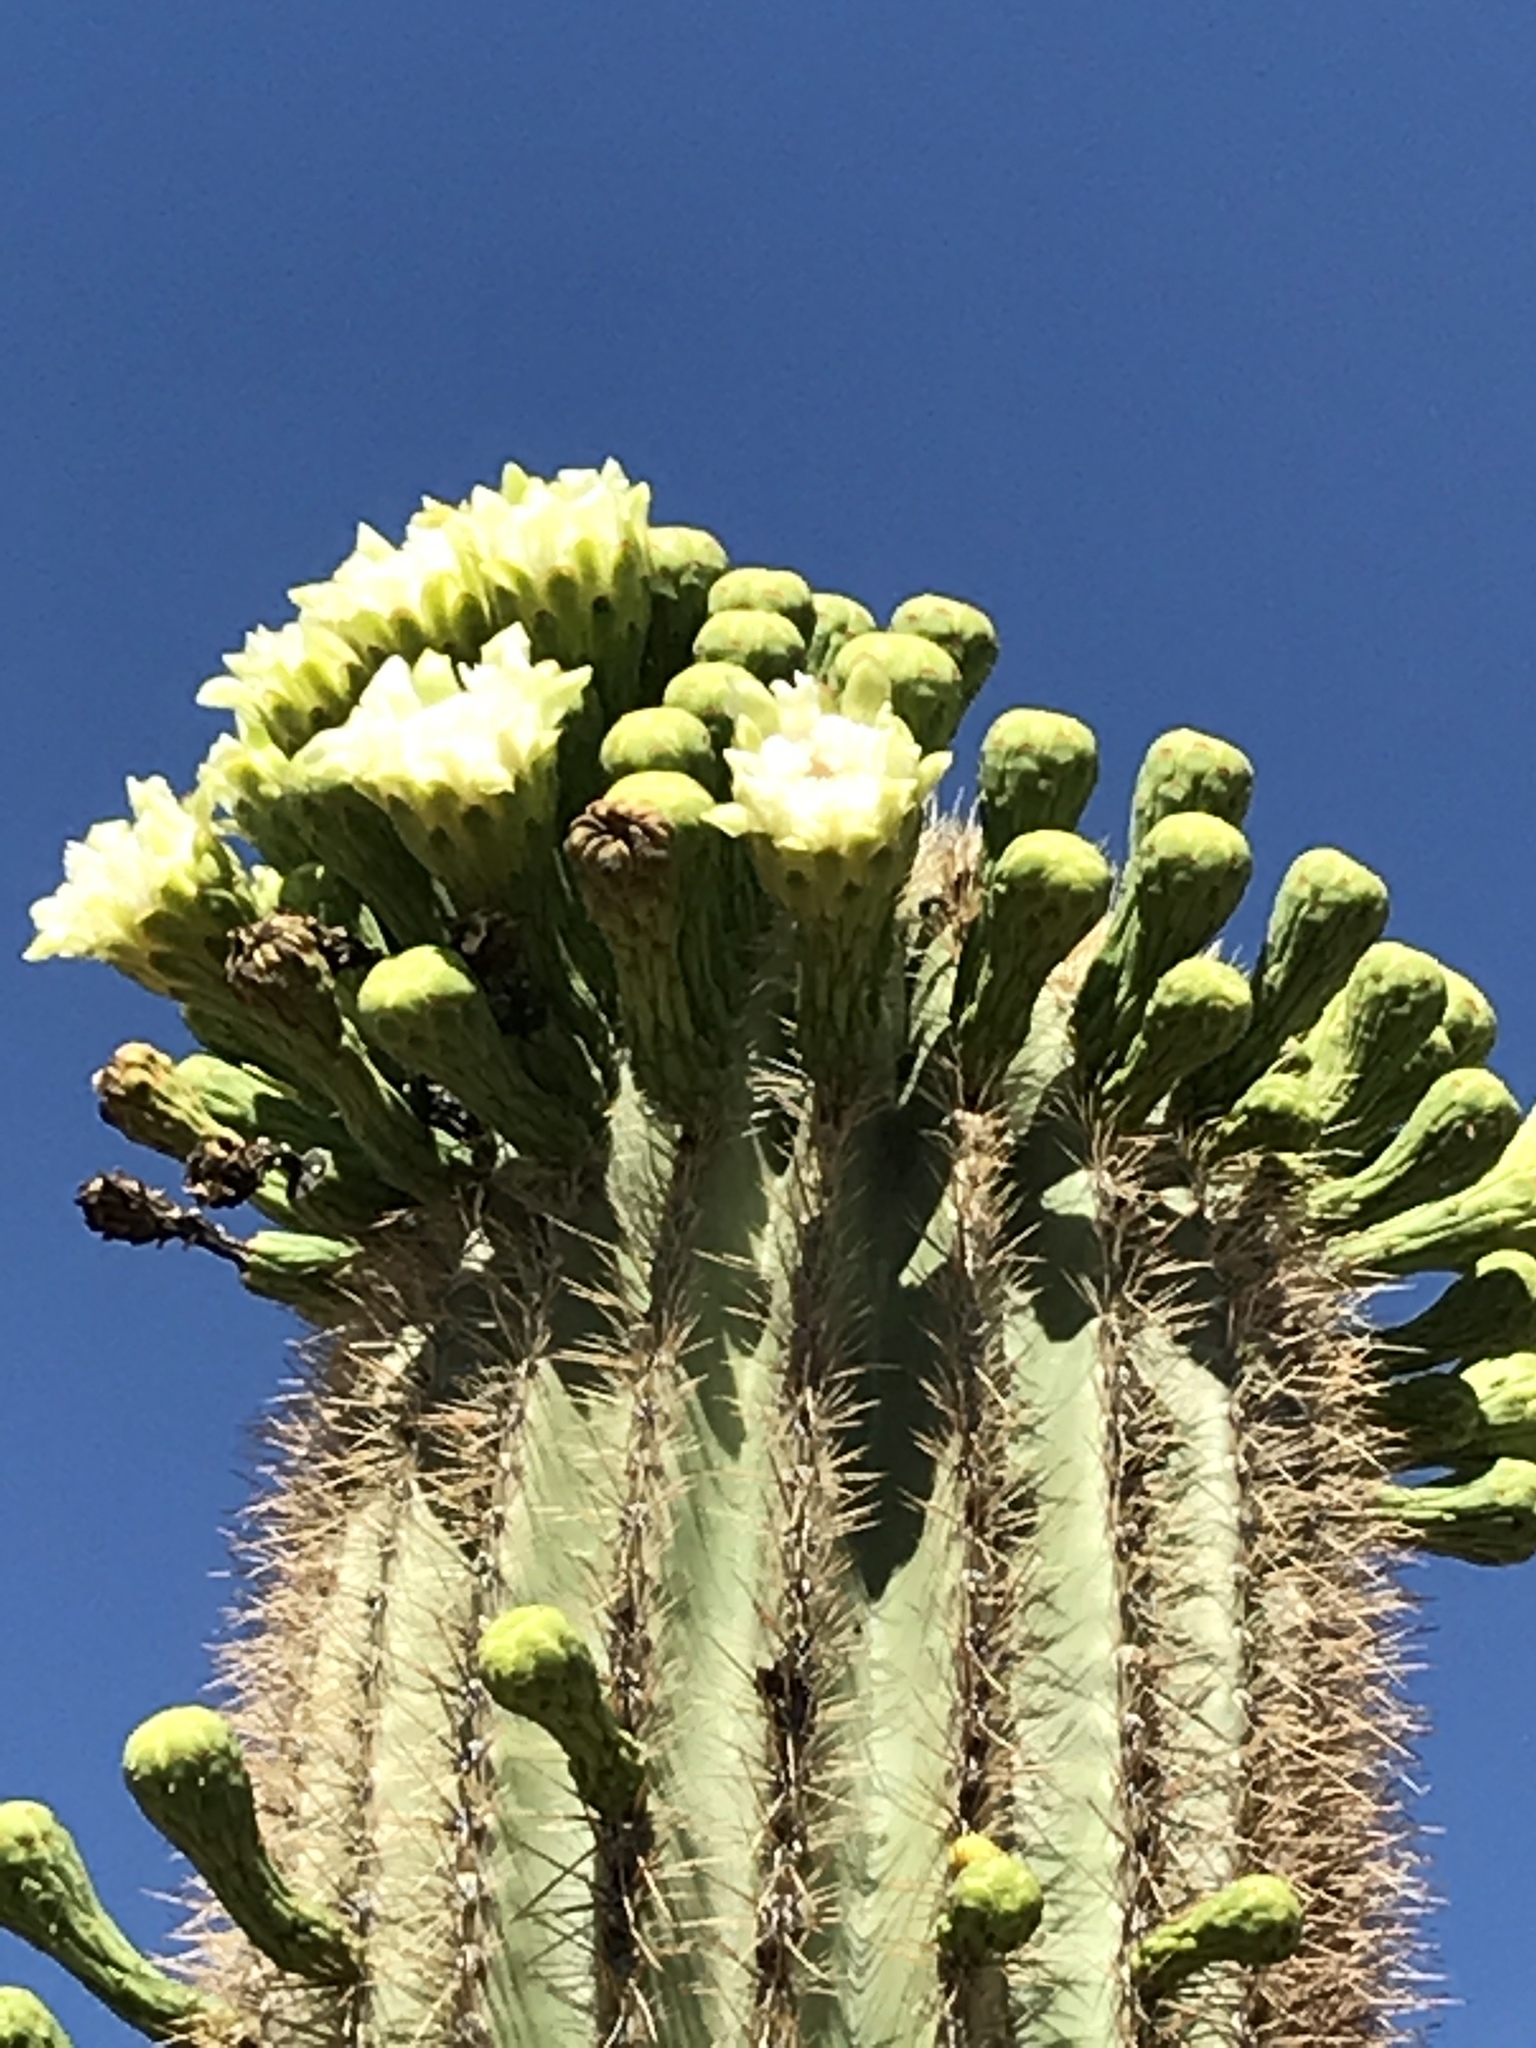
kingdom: Plantae
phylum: Tracheophyta
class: Magnoliopsida
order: Caryophyllales
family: Cactaceae
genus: Carnegiea
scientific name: Carnegiea gigantea
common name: Saguaro
